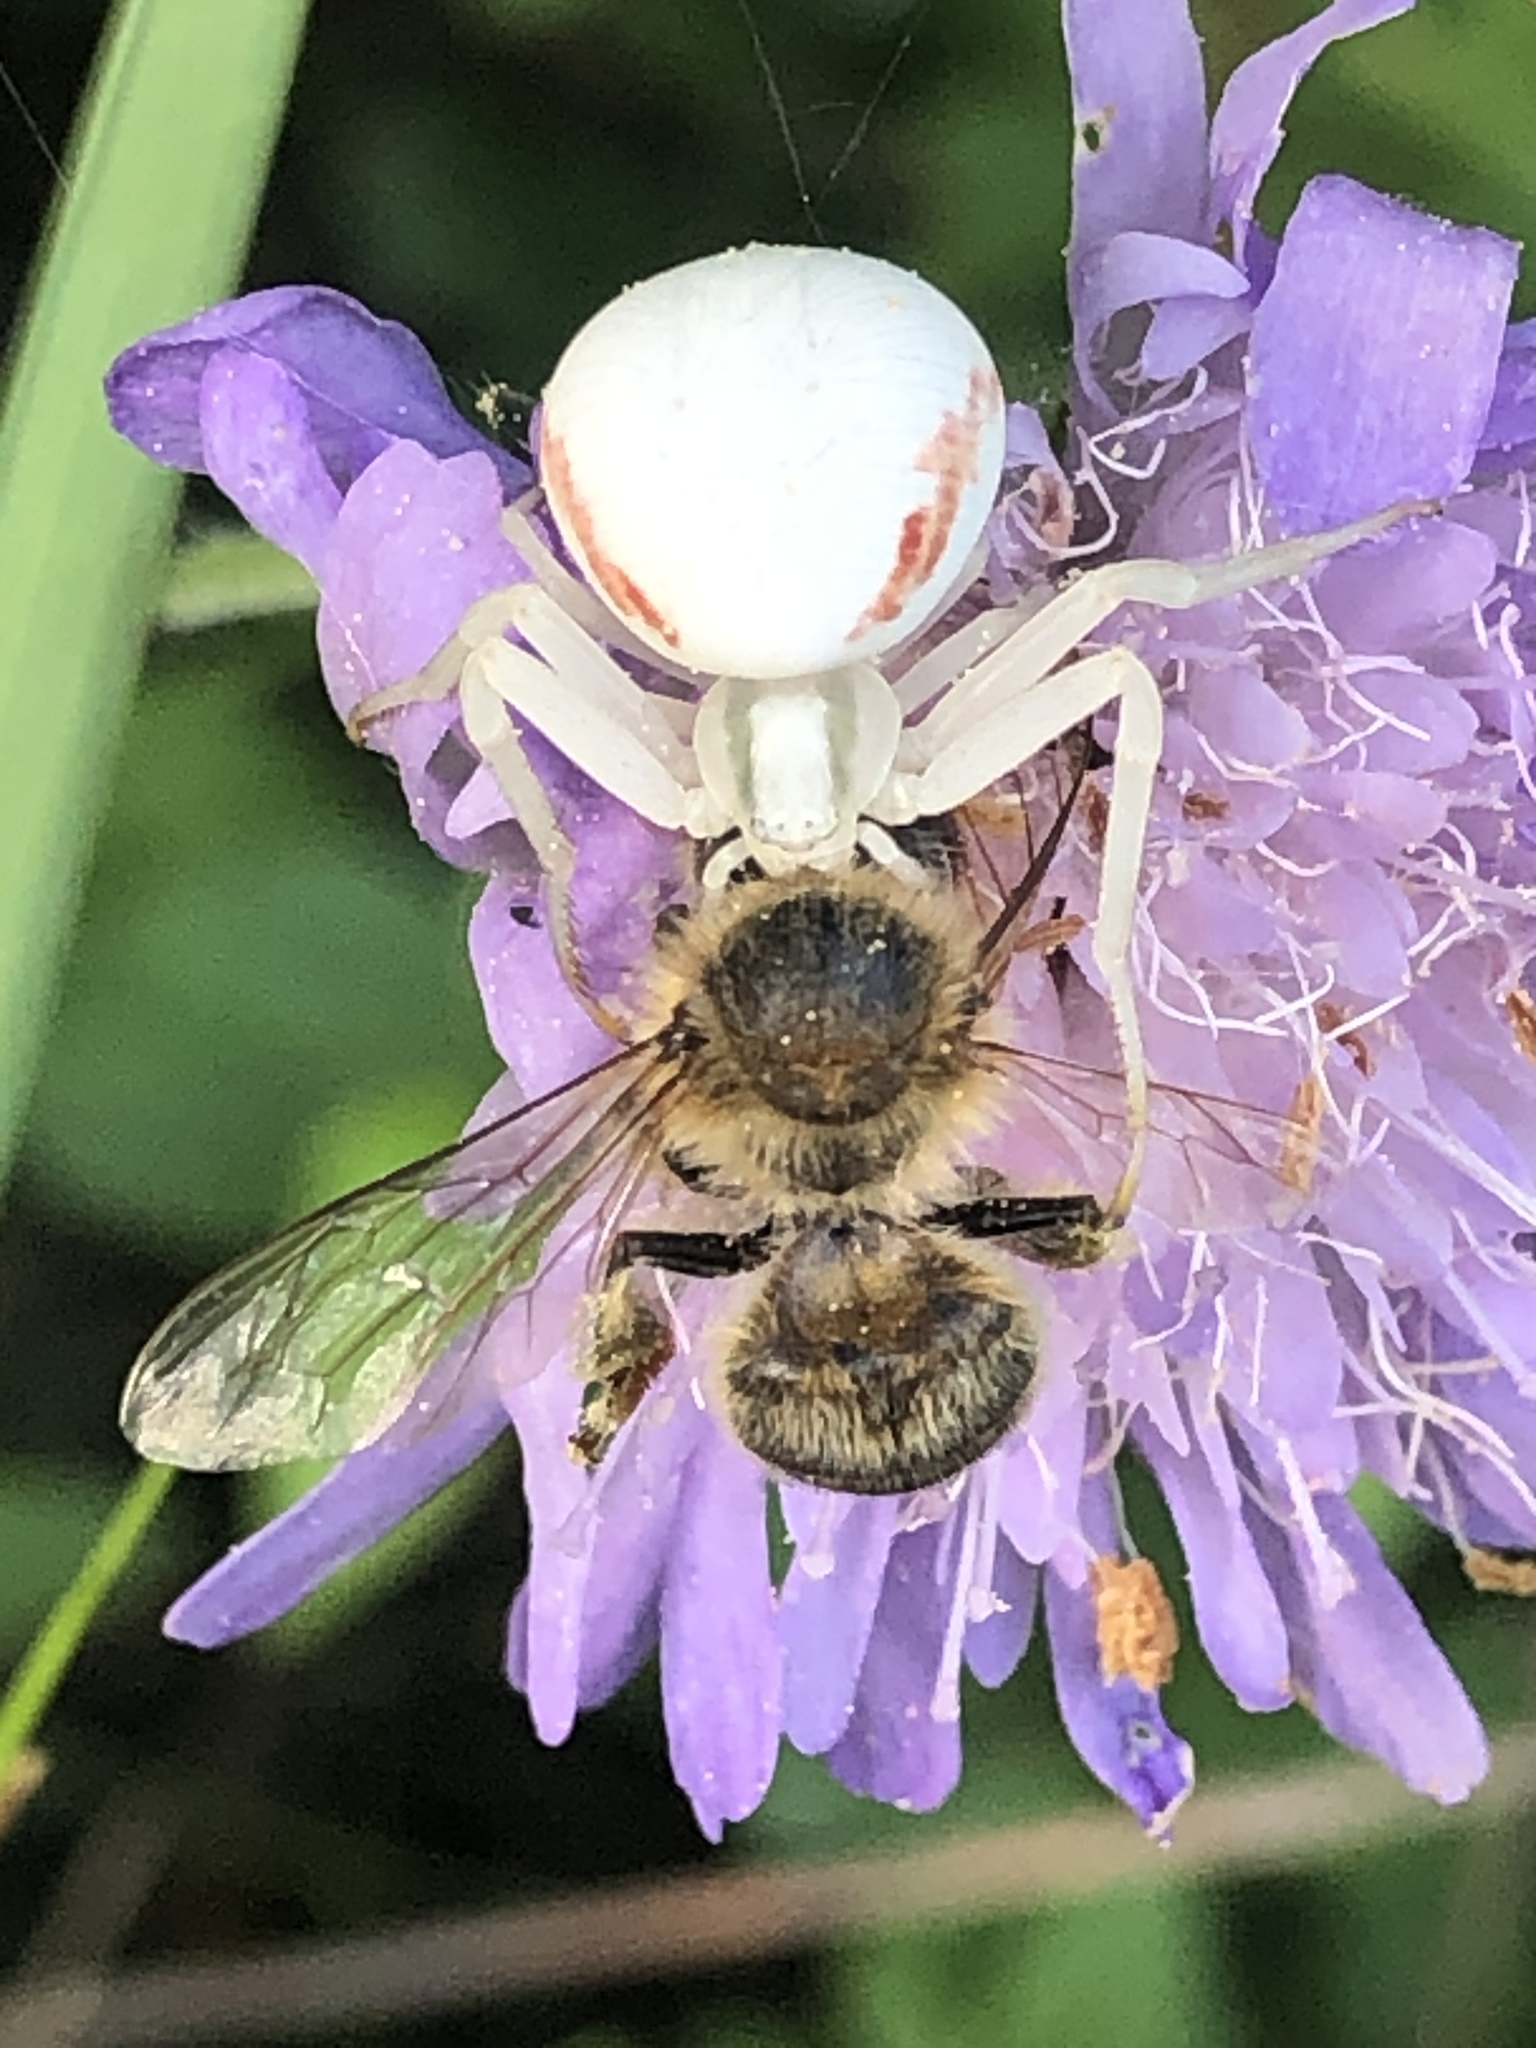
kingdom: Animalia
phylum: Arthropoda
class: Arachnida
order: Araneae
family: Thomisidae
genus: Misumena
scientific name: Misumena vatia
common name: Goldenrod crab spider
